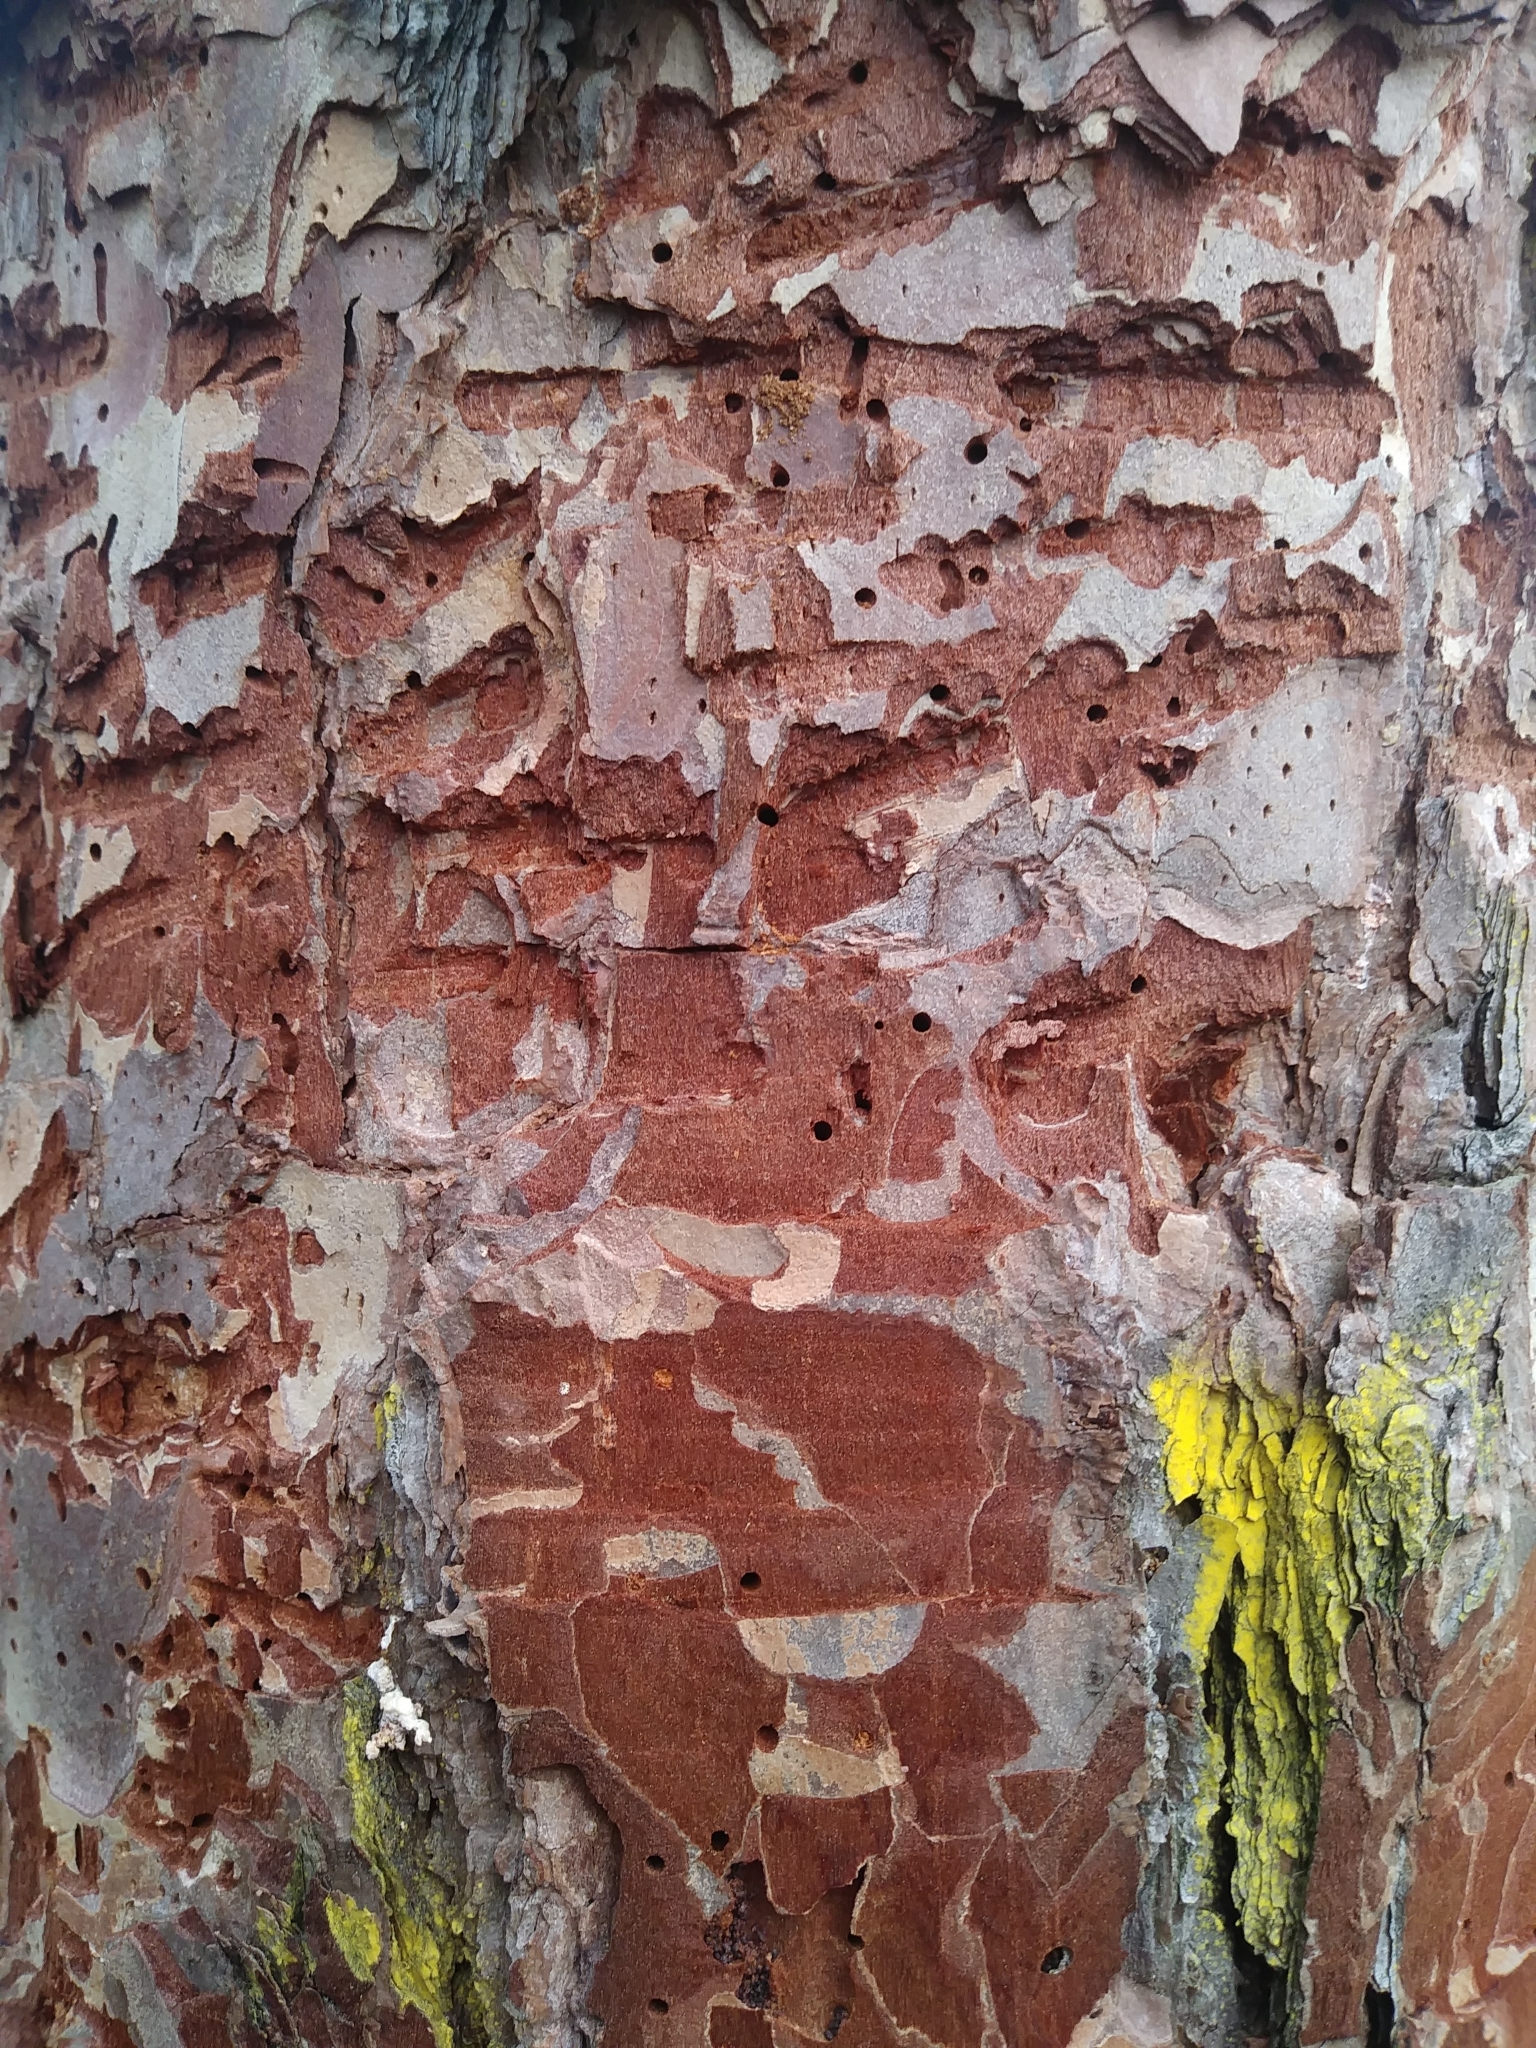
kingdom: Animalia
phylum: Arthropoda
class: Insecta
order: Coleoptera
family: Curculionidae
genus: Dendroctonus
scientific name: Dendroctonus frontalis
